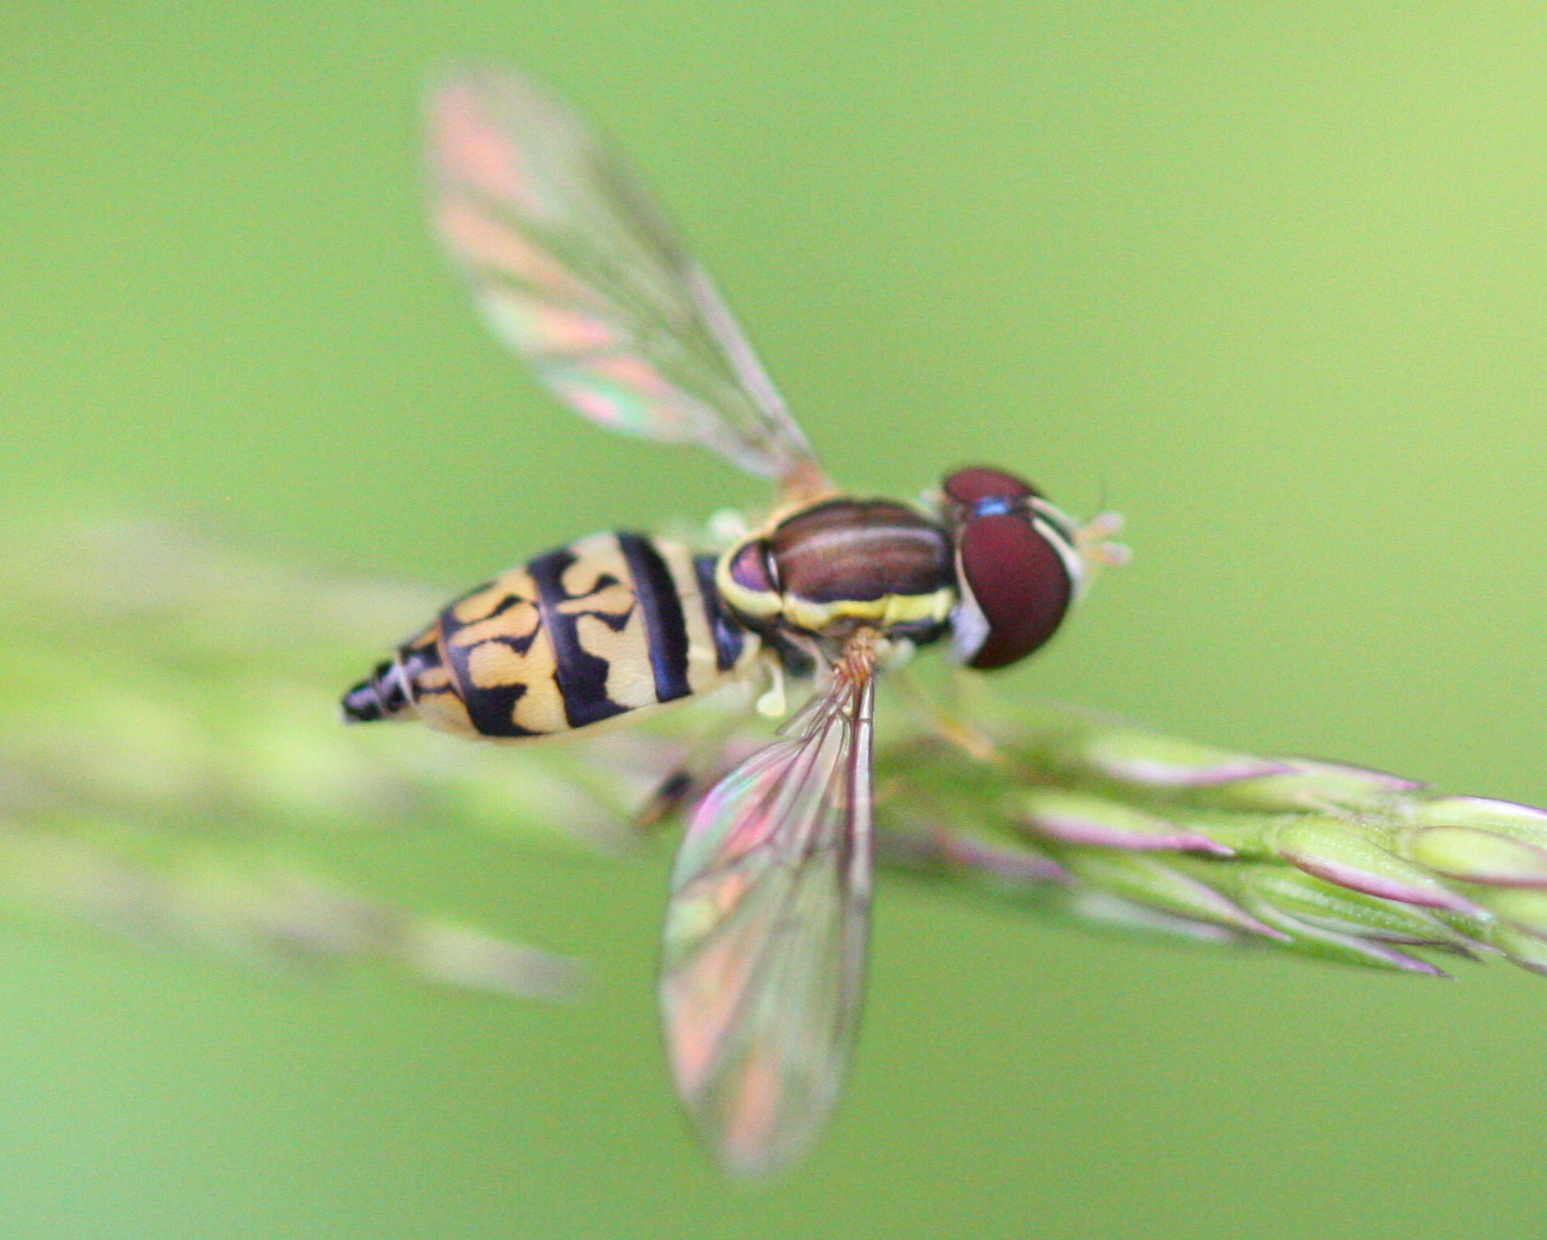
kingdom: Animalia
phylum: Arthropoda
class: Insecta
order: Diptera
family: Syrphidae
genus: Toxomerus
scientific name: Toxomerus geminatus
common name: Eastern calligrapher
